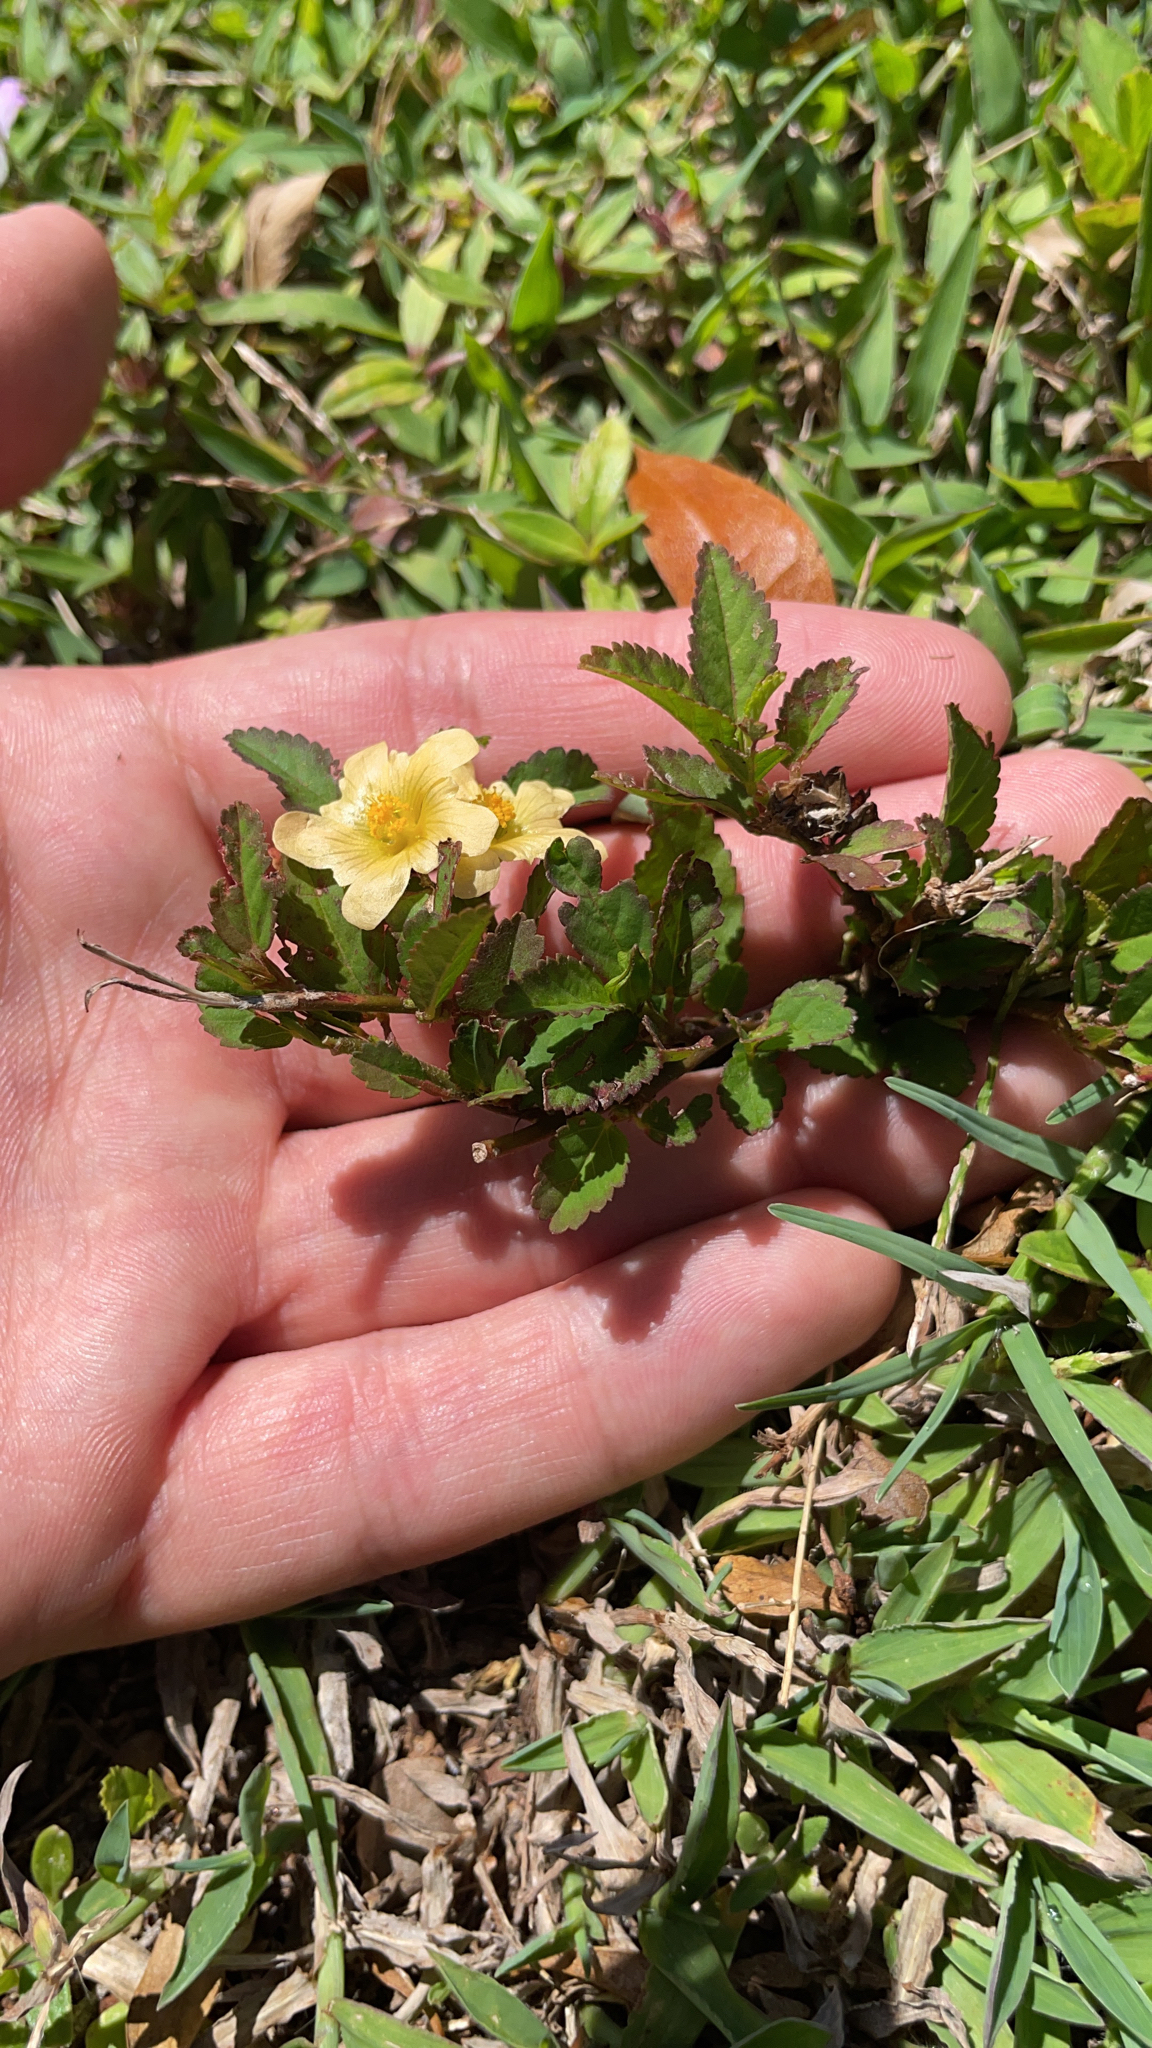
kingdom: Plantae
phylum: Tracheophyta
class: Magnoliopsida
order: Malvales
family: Malvaceae
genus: Sida
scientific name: Sida ulmifolia
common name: Broom weed
